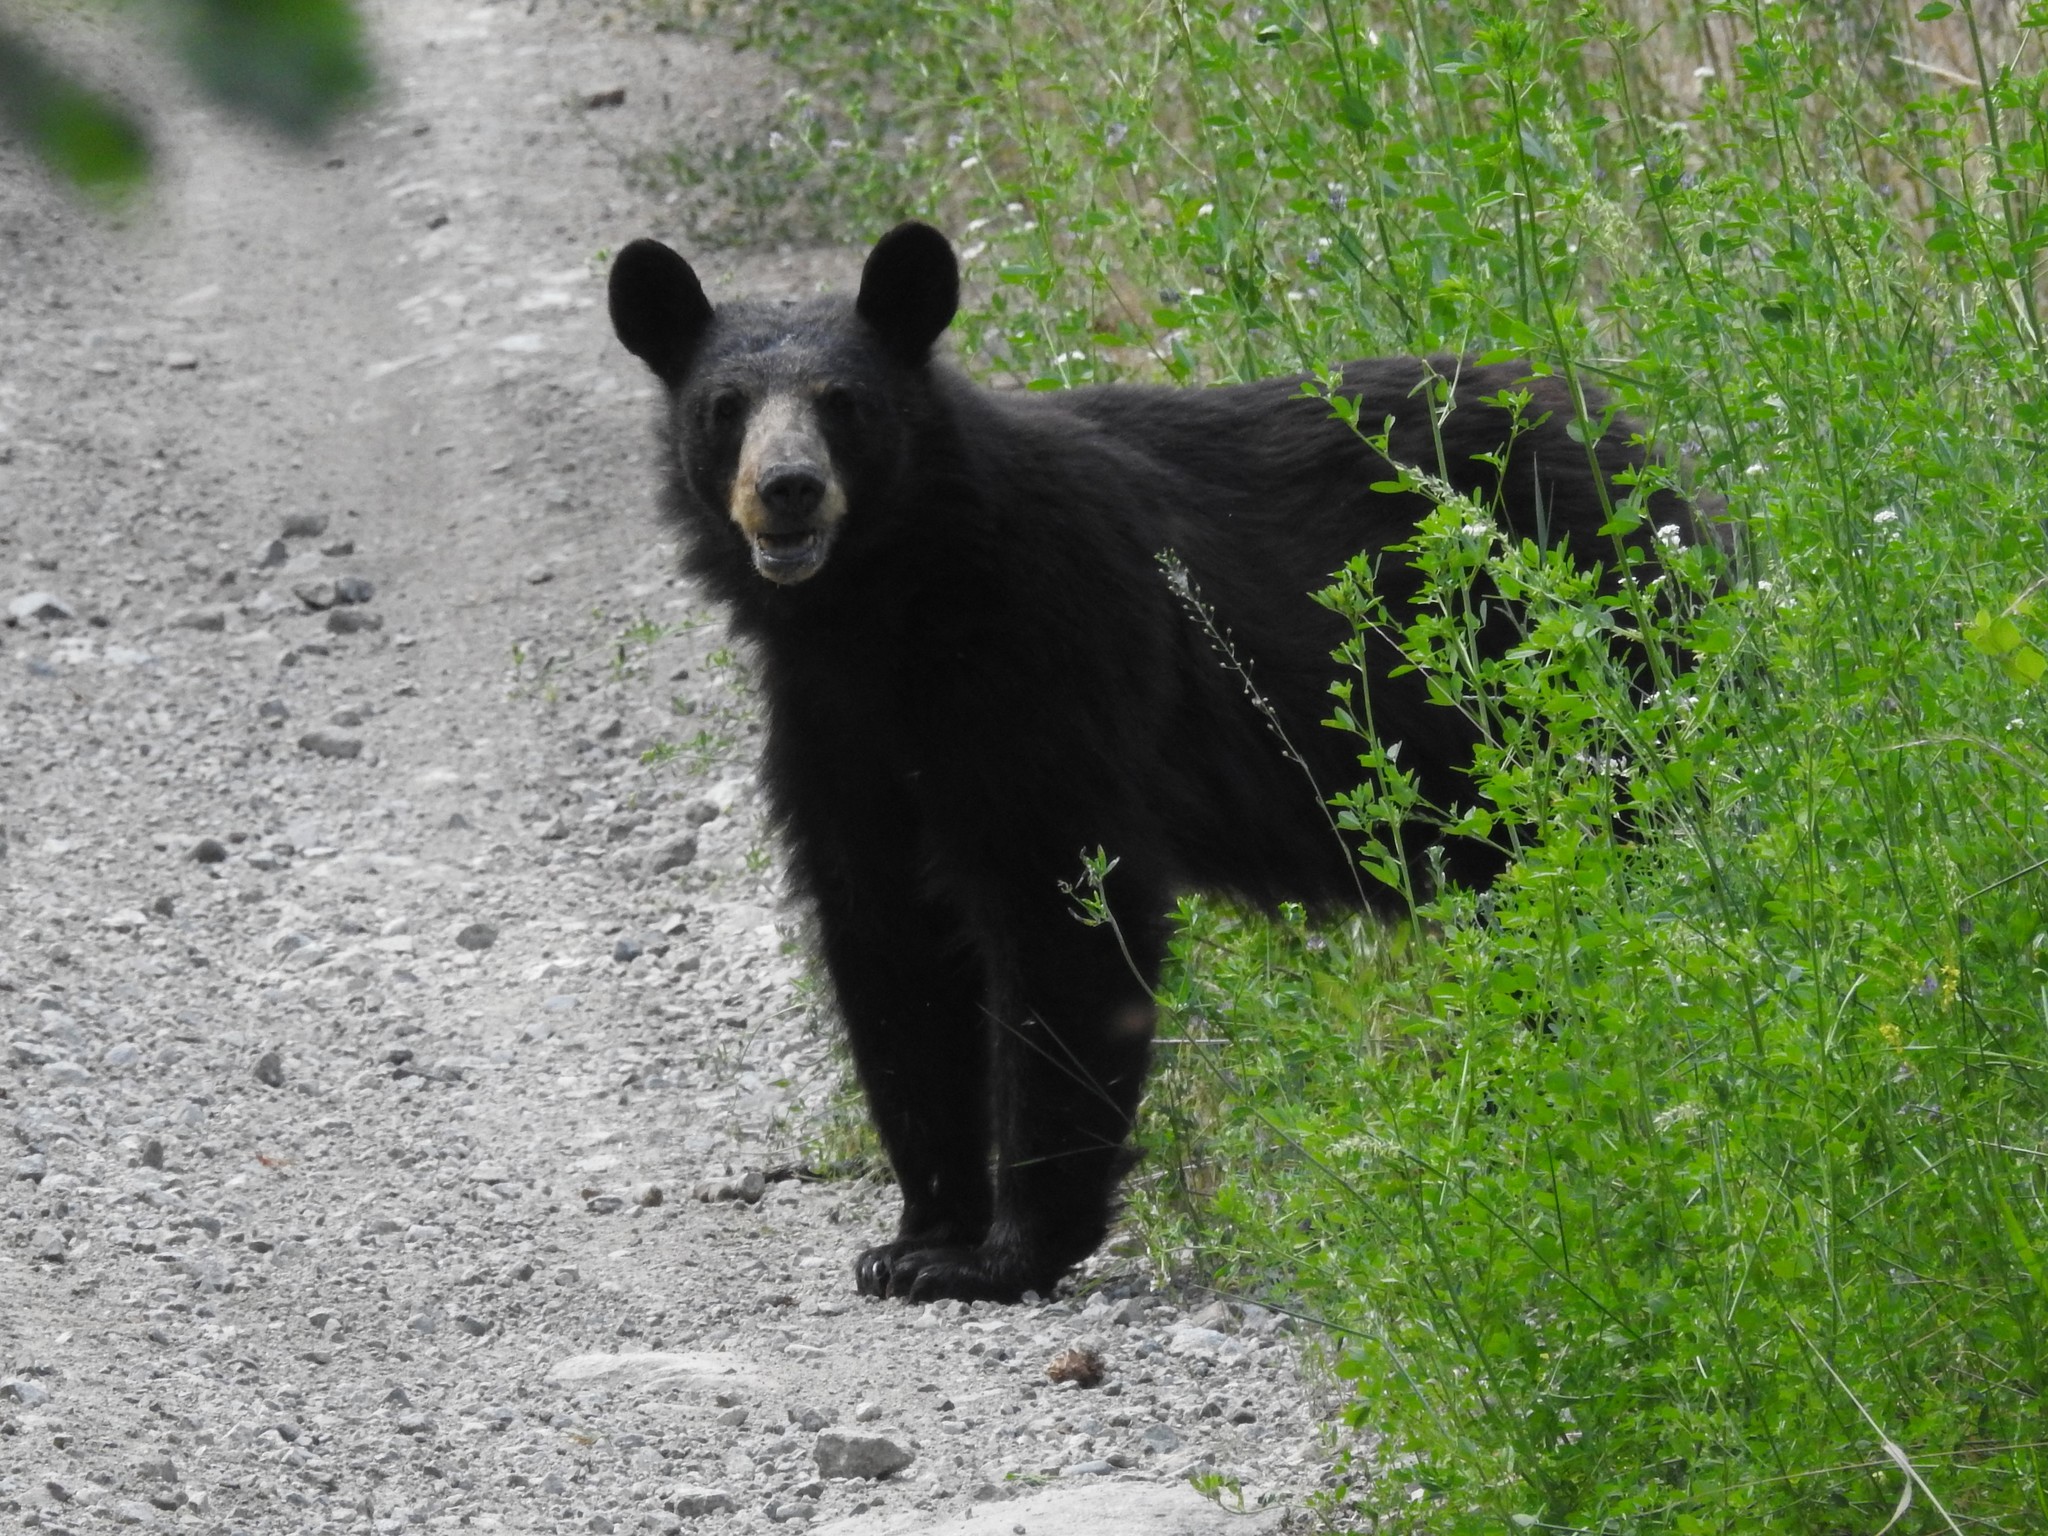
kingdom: Animalia
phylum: Chordata
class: Mammalia
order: Carnivora
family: Ursidae
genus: Ursus
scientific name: Ursus americanus
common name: American black bear
